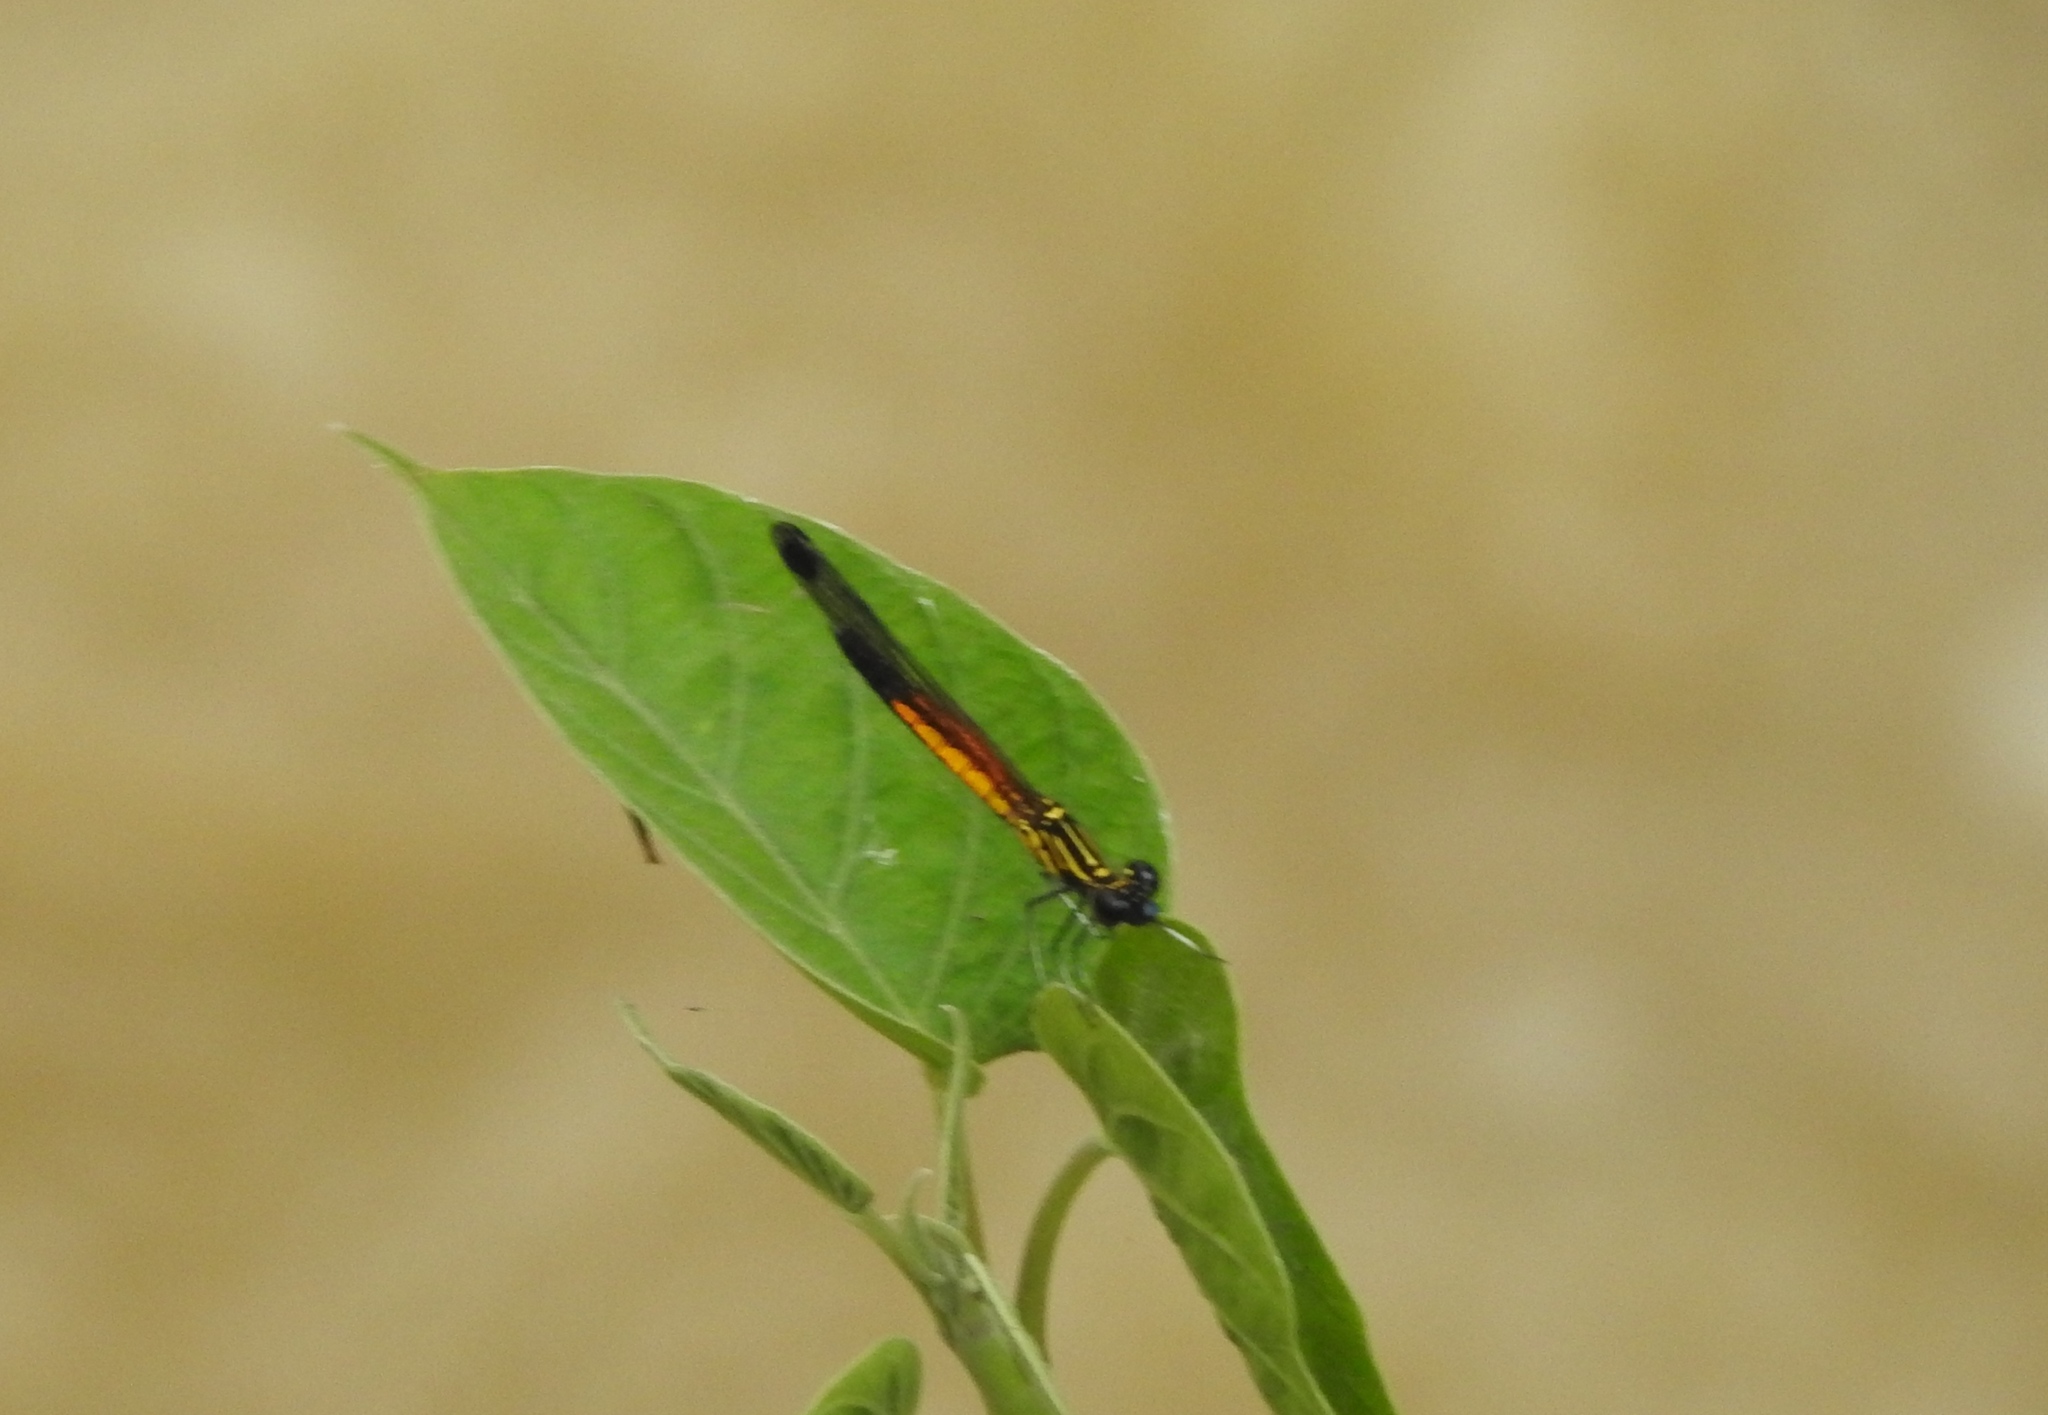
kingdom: Animalia
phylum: Arthropoda
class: Insecta
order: Odonata
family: Chlorocyphidae
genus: Libellago
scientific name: Libellago indica
